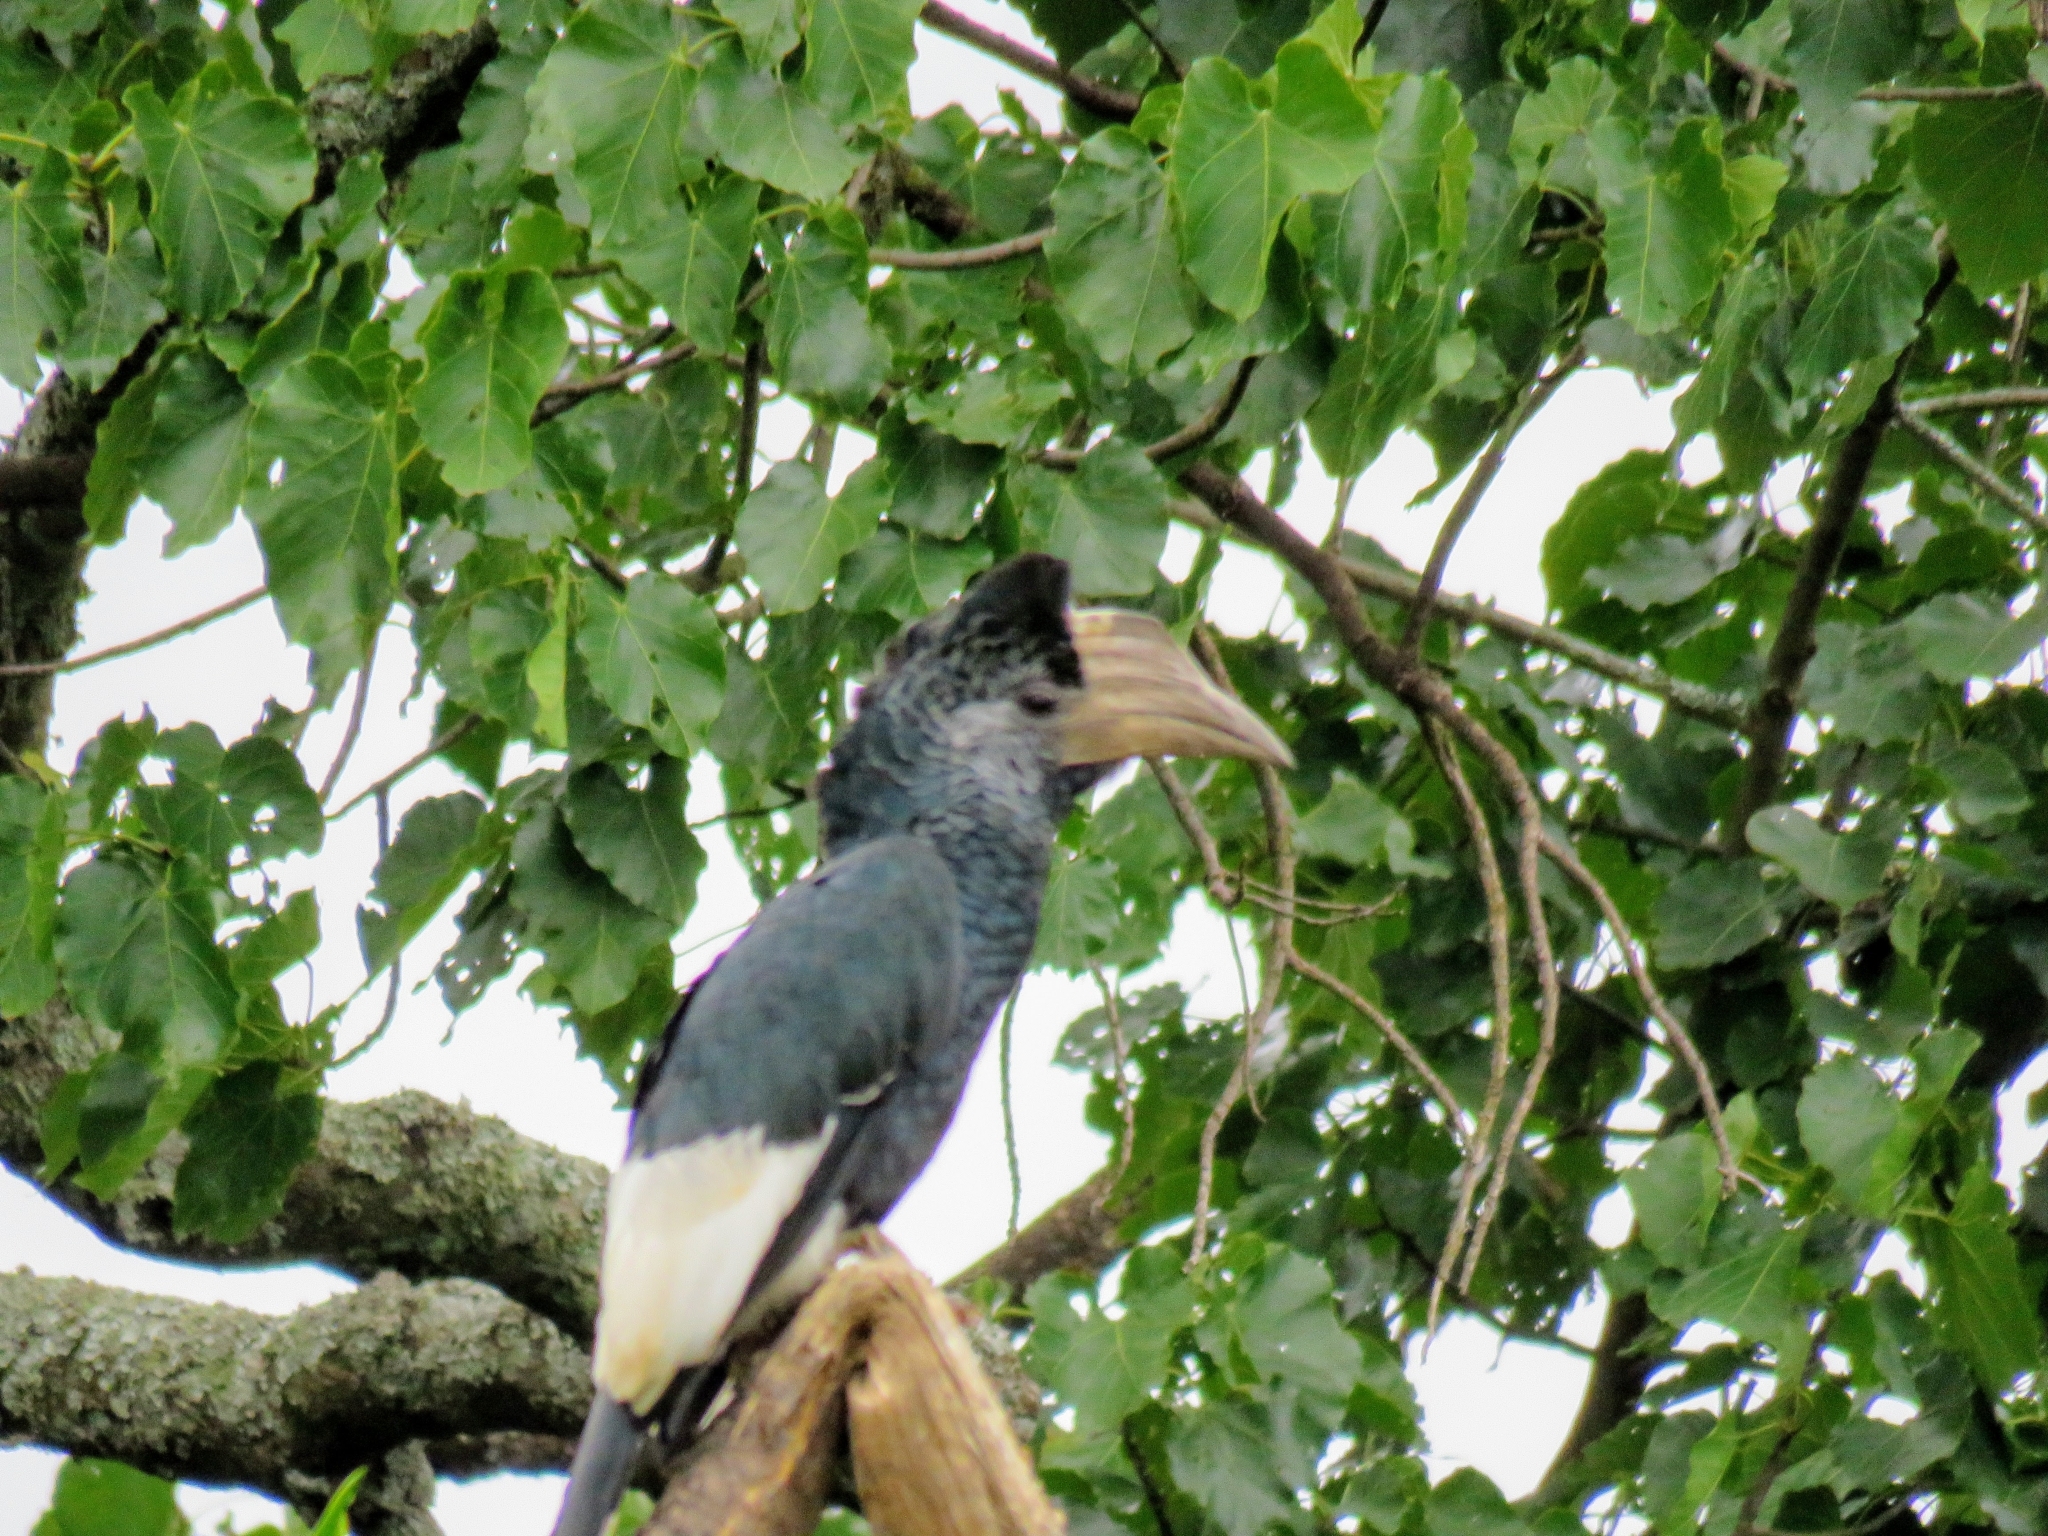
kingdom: Animalia
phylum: Chordata
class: Aves
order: Bucerotiformes
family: Bucerotidae
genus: Bycanistes
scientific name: Bycanistes subcylindricus
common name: Black-and-white-casqued hornbill
